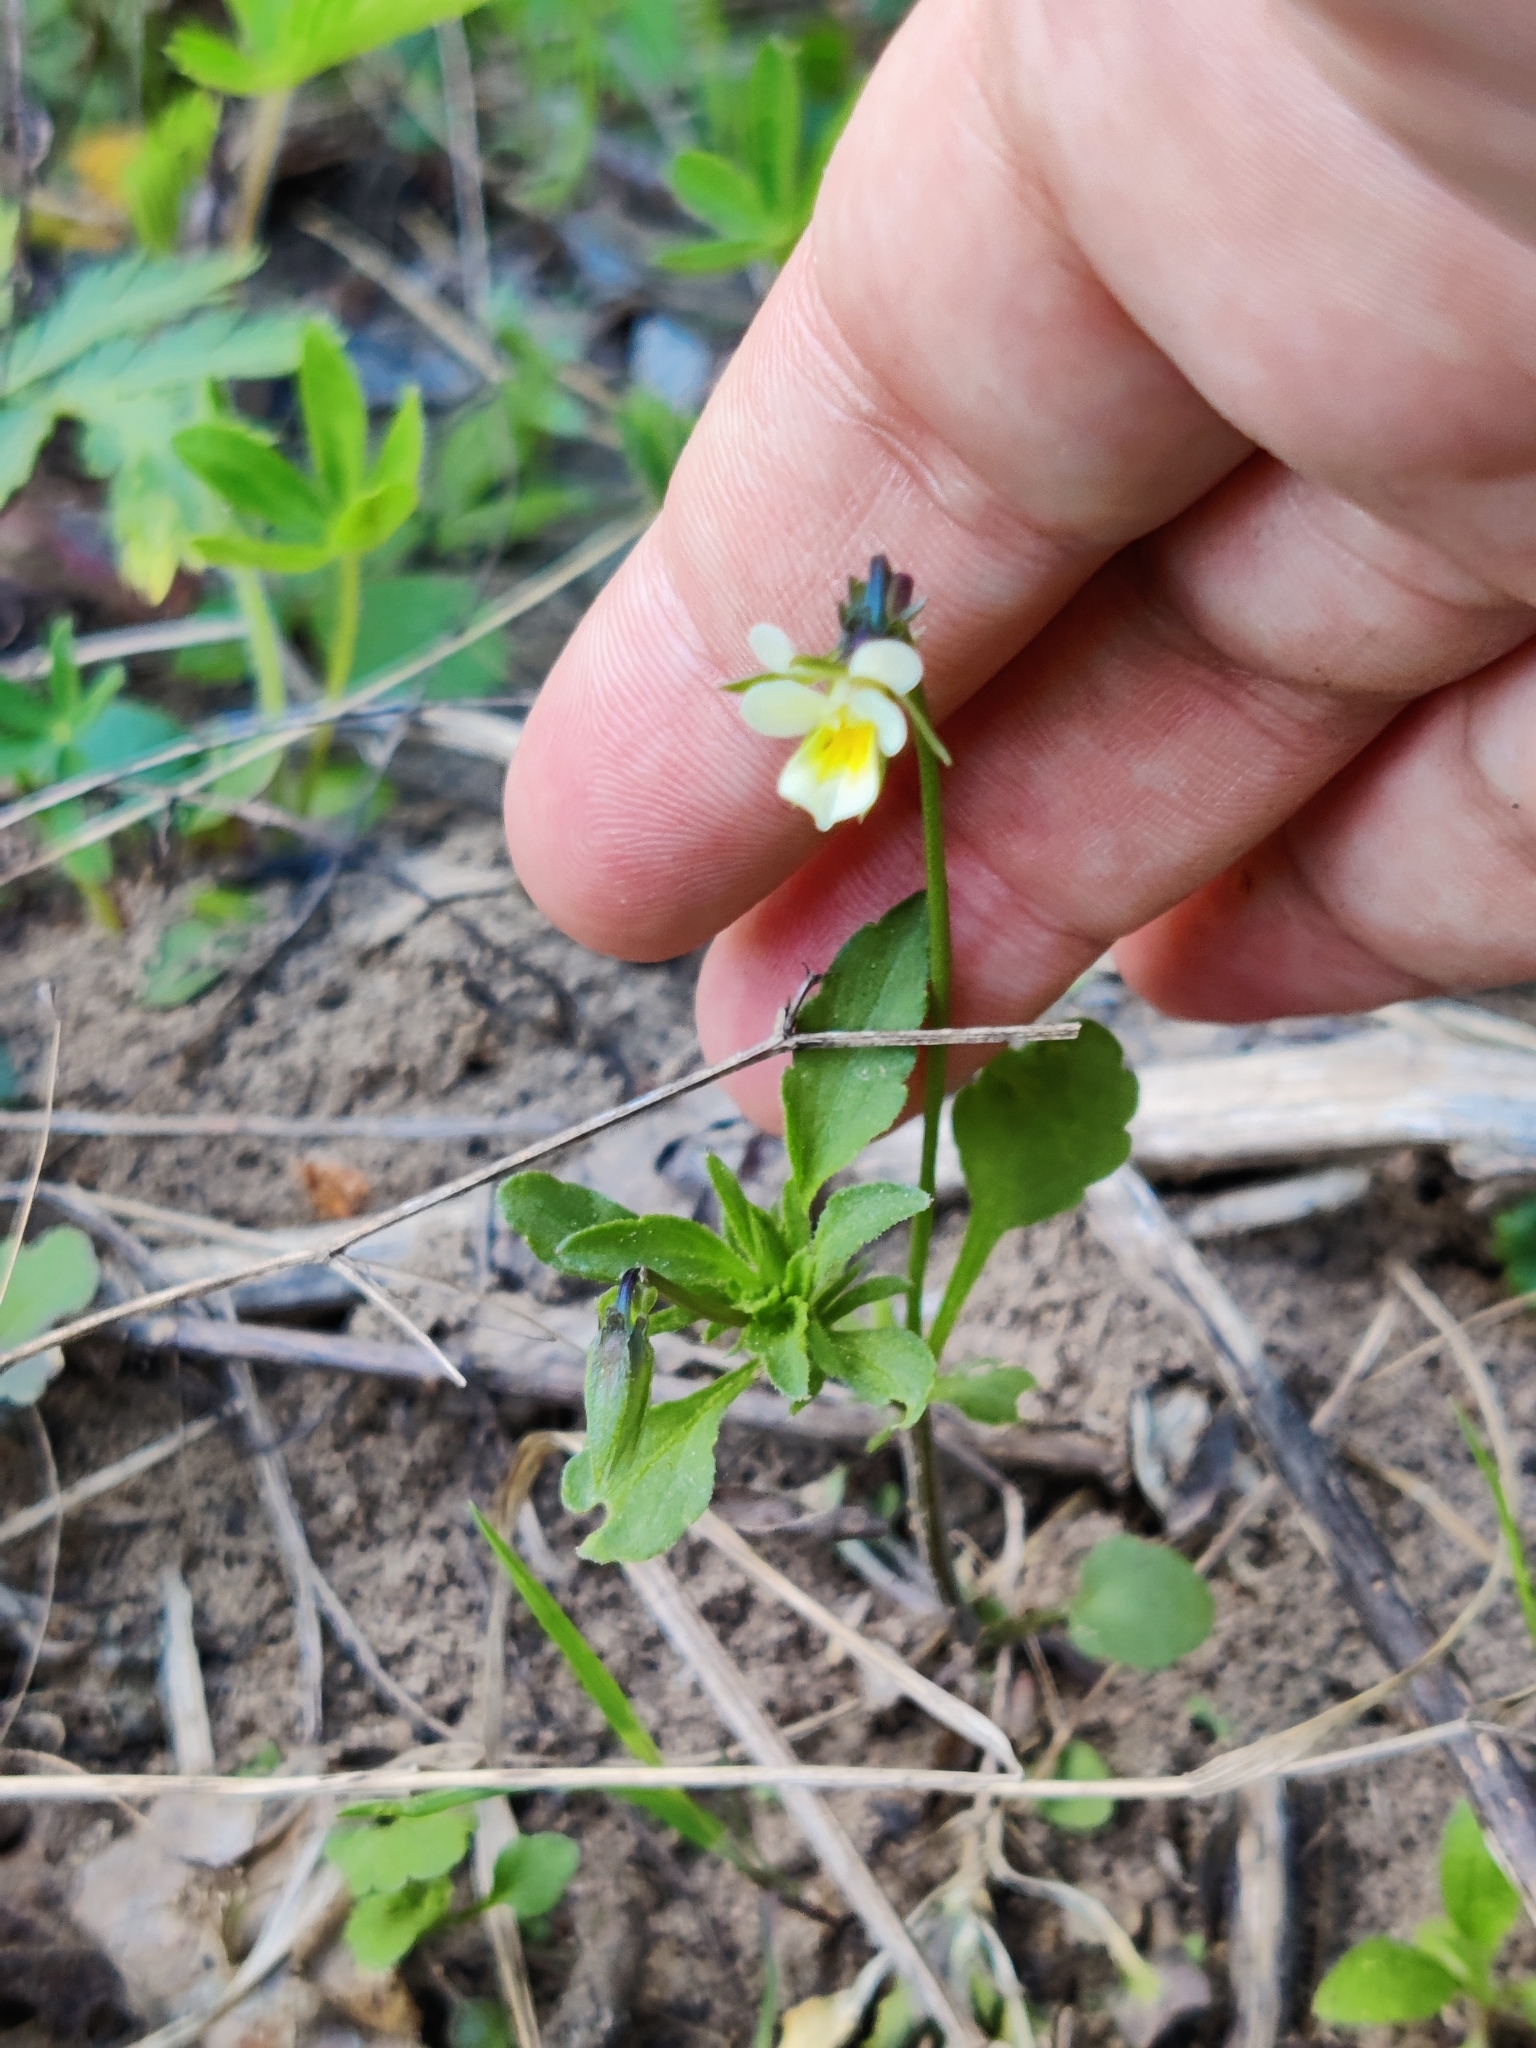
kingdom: Plantae
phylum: Tracheophyta
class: Magnoliopsida
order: Malpighiales
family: Violaceae
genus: Viola
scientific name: Viola arvensis
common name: Field pansy
